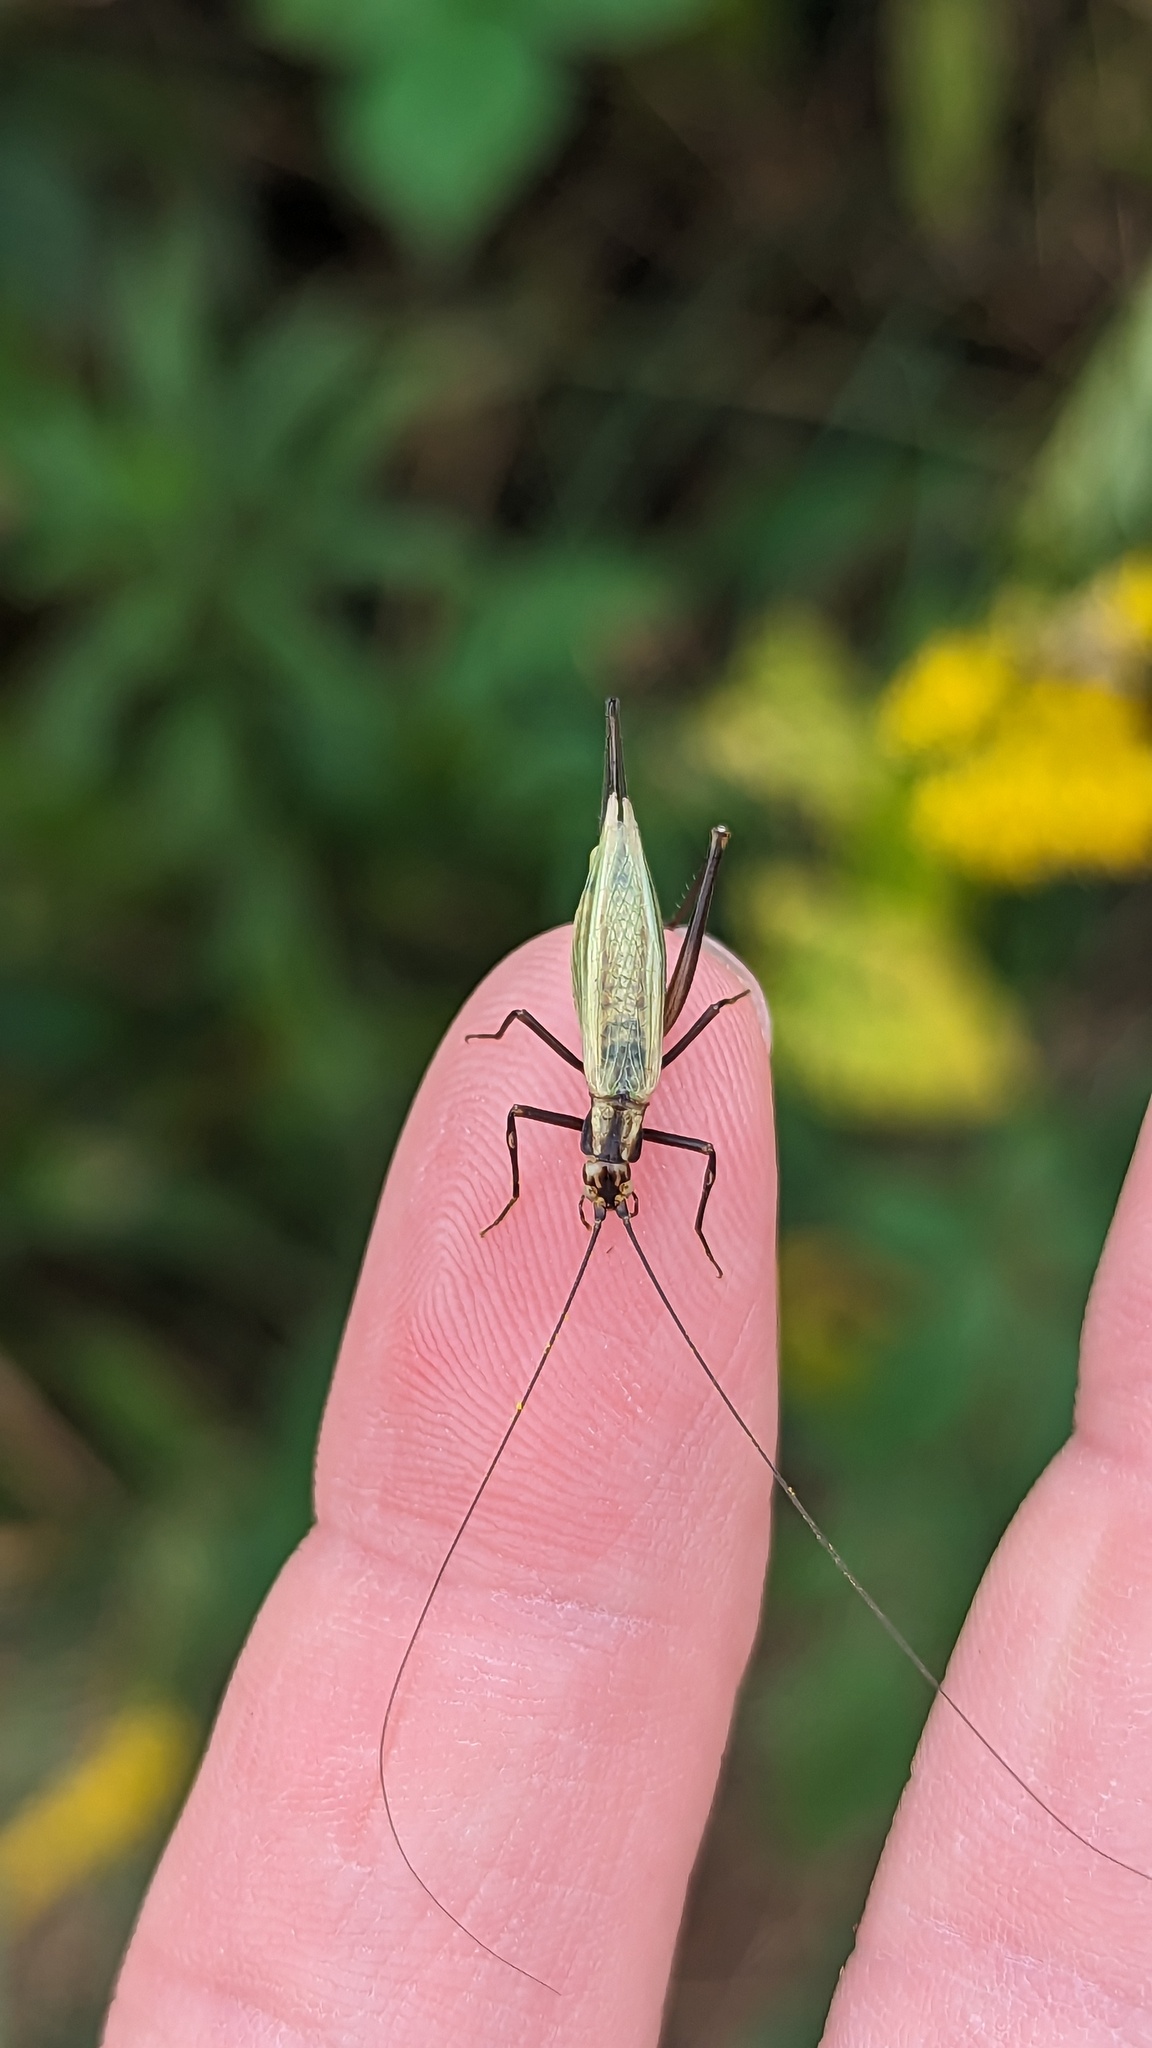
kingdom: Animalia
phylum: Arthropoda
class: Insecta
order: Orthoptera
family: Gryllidae
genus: Oecanthus
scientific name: Oecanthus
